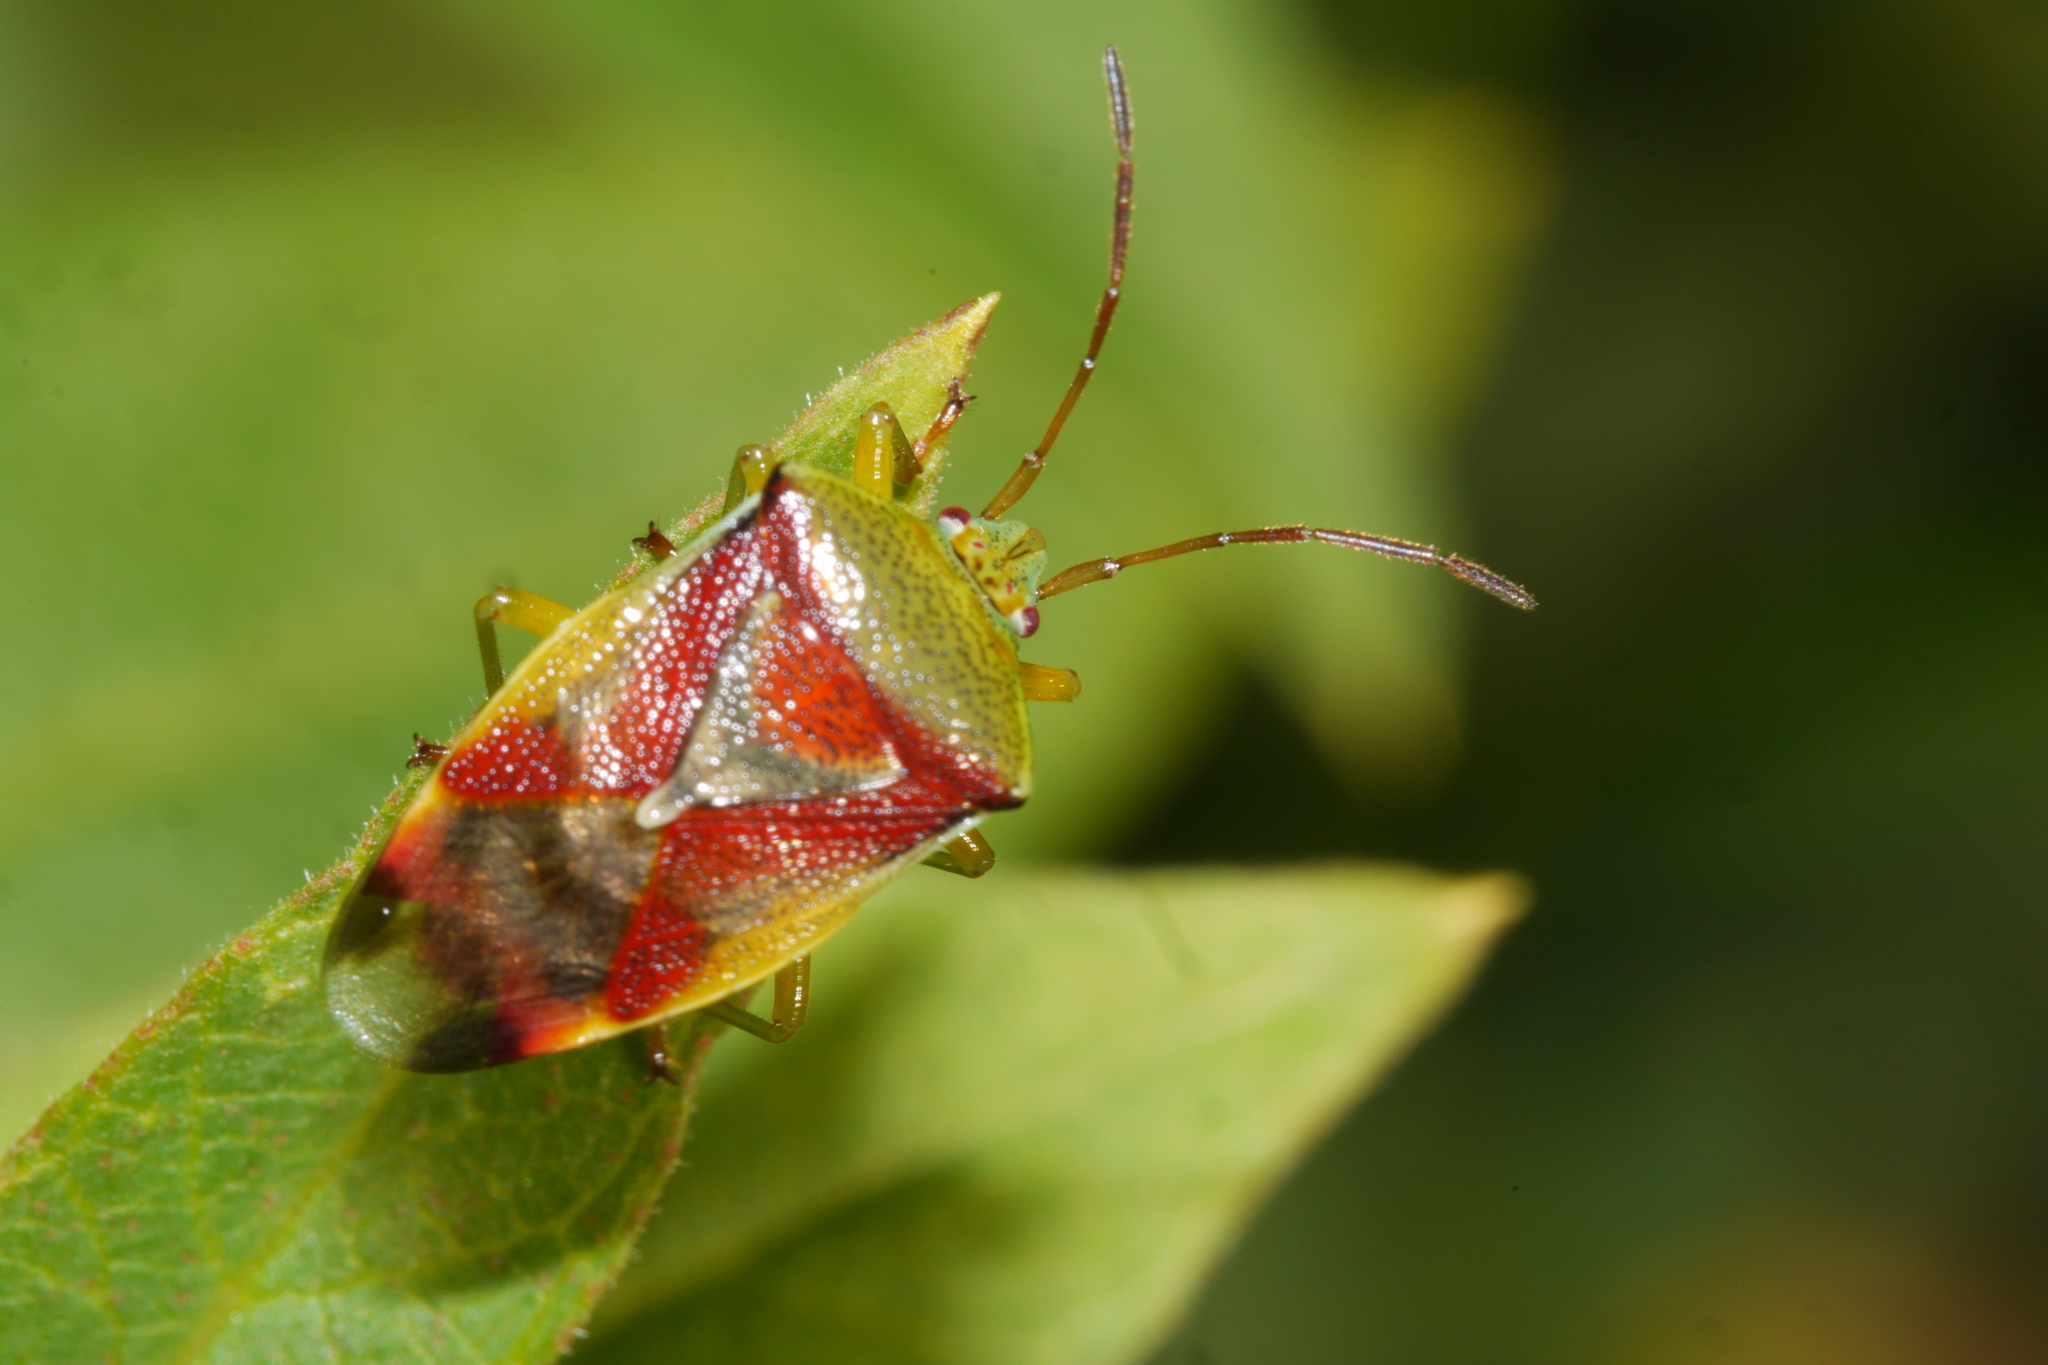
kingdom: Animalia
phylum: Arthropoda
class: Insecta
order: Hemiptera
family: Acanthosomatidae
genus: Elasmostethus
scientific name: Elasmostethus interstinctus
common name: Birch shieldbug
